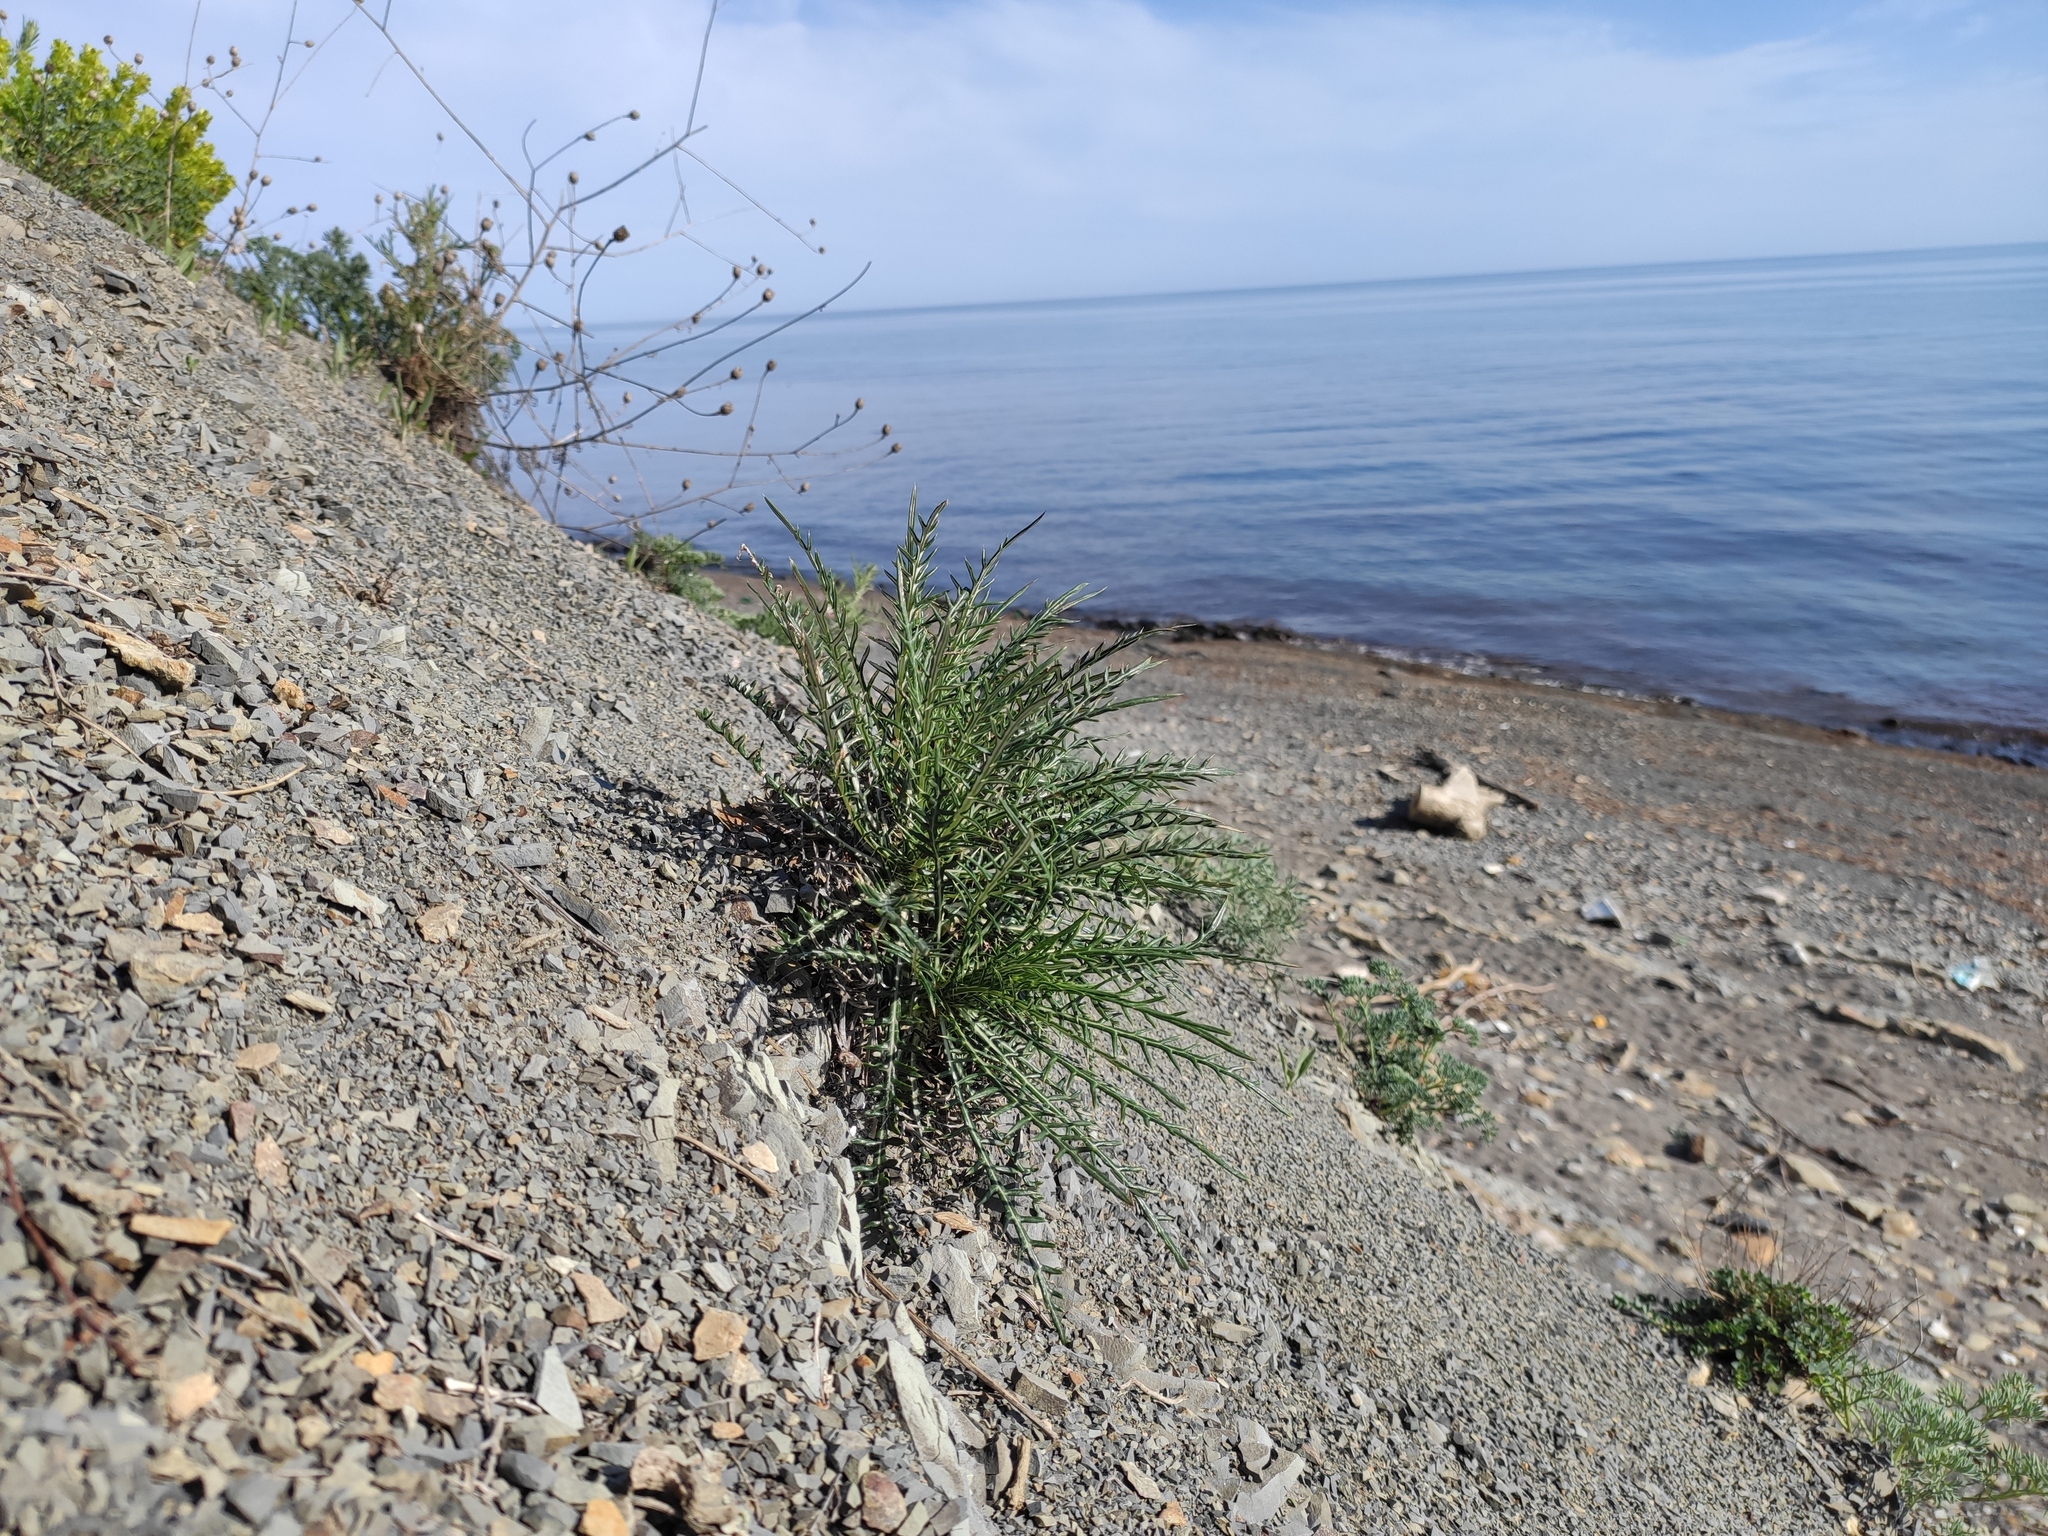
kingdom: Plantae
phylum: Tracheophyta
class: Magnoliopsida
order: Asterales
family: Asteraceae
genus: Ptilostemon
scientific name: Ptilostemon echinocephalus
